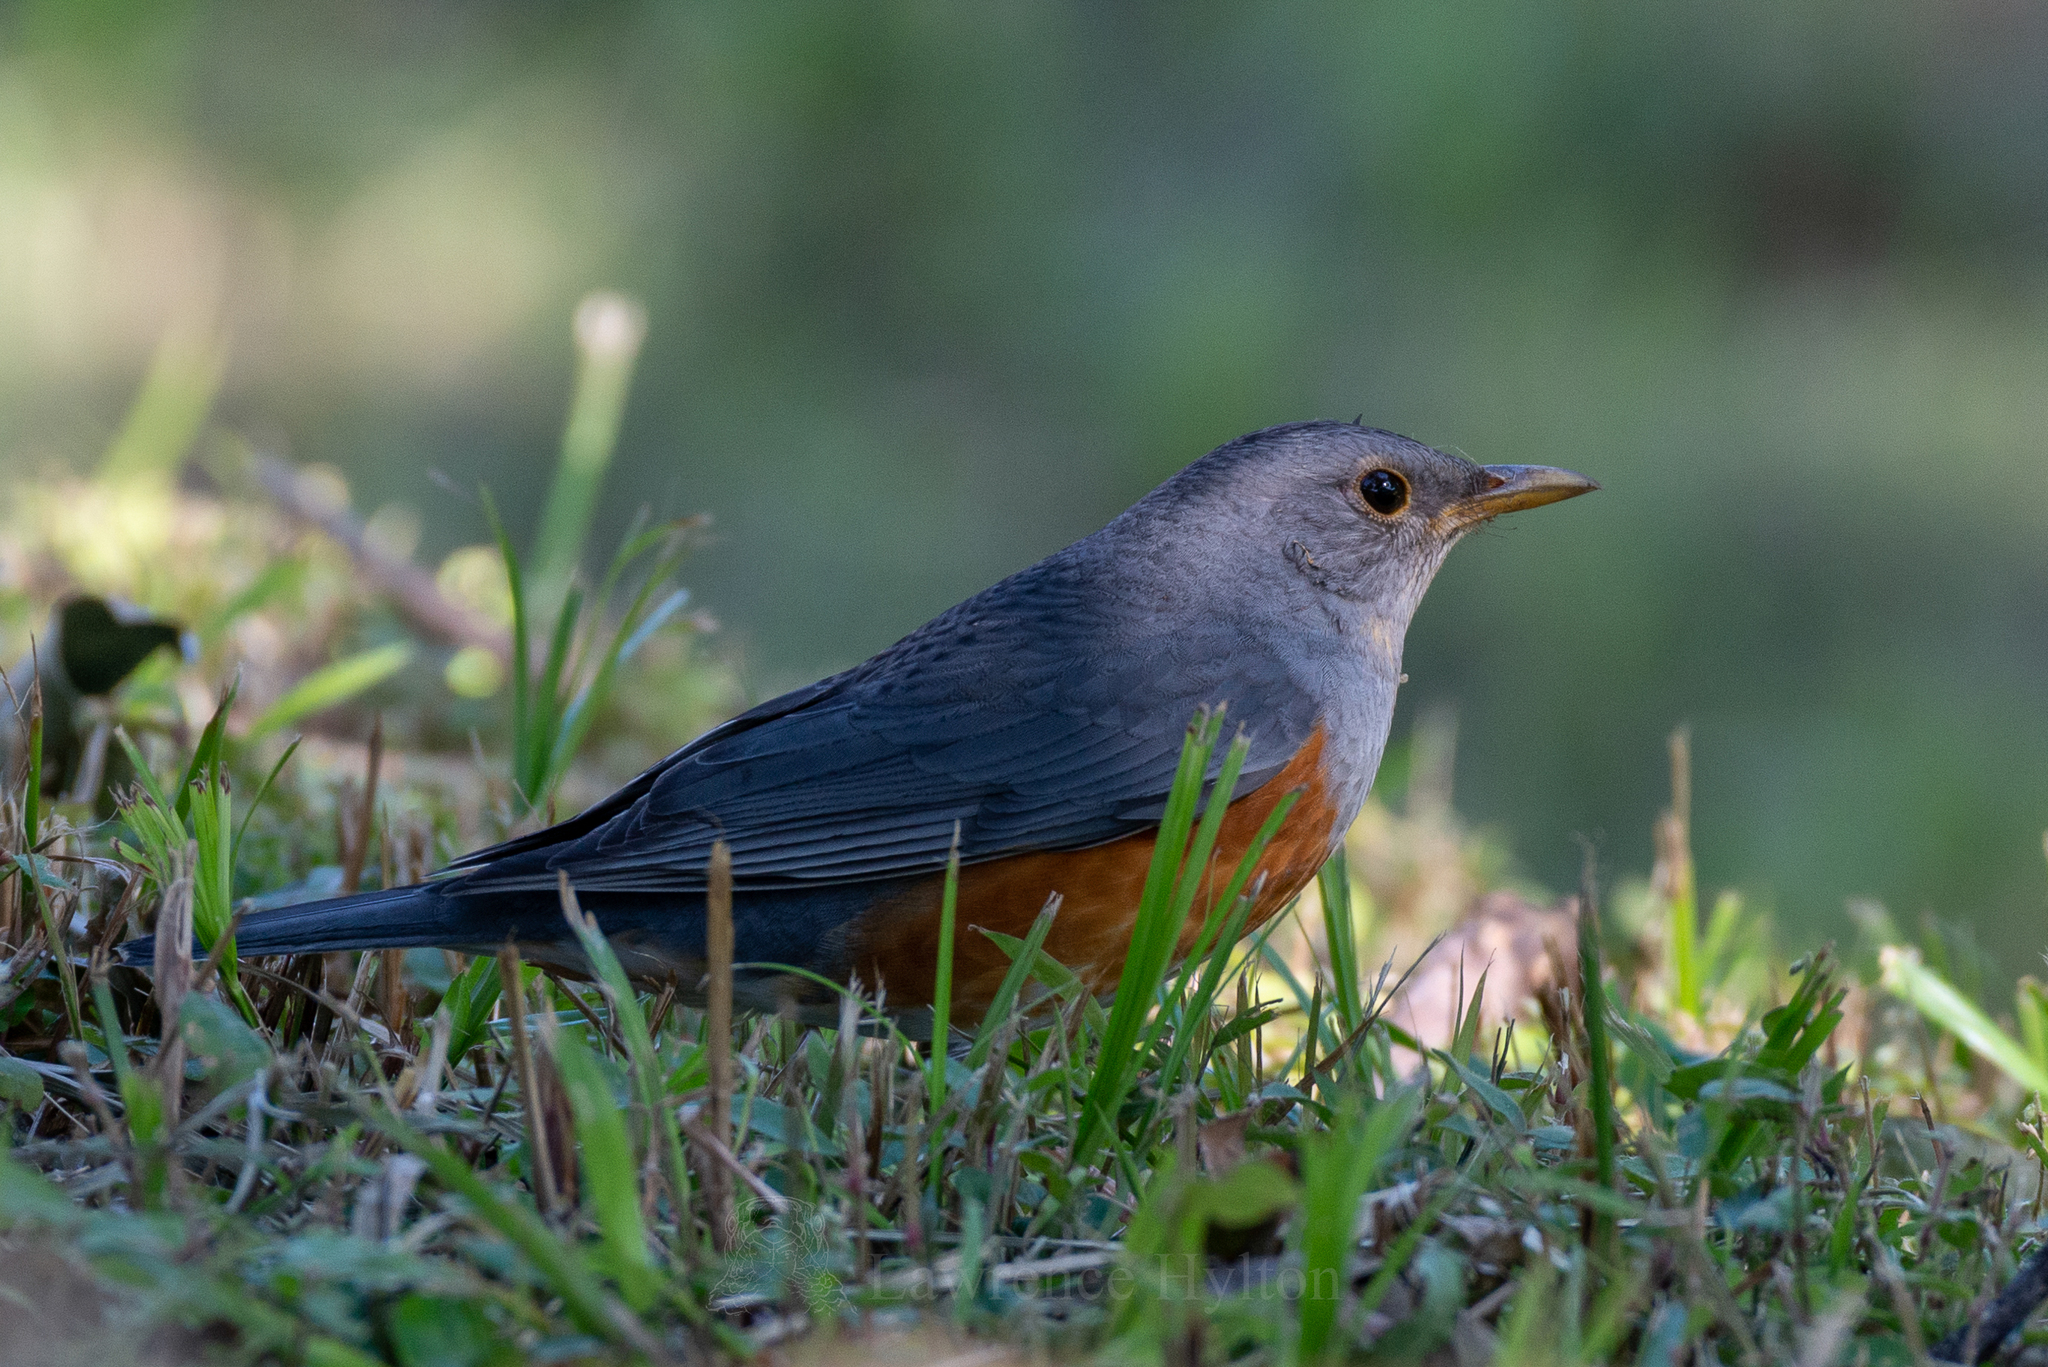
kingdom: Animalia
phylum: Chordata
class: Aves
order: Passeriformes
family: Turdidae
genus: Turdus
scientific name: Turdus hortulorum
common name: Grey-backed thrush
